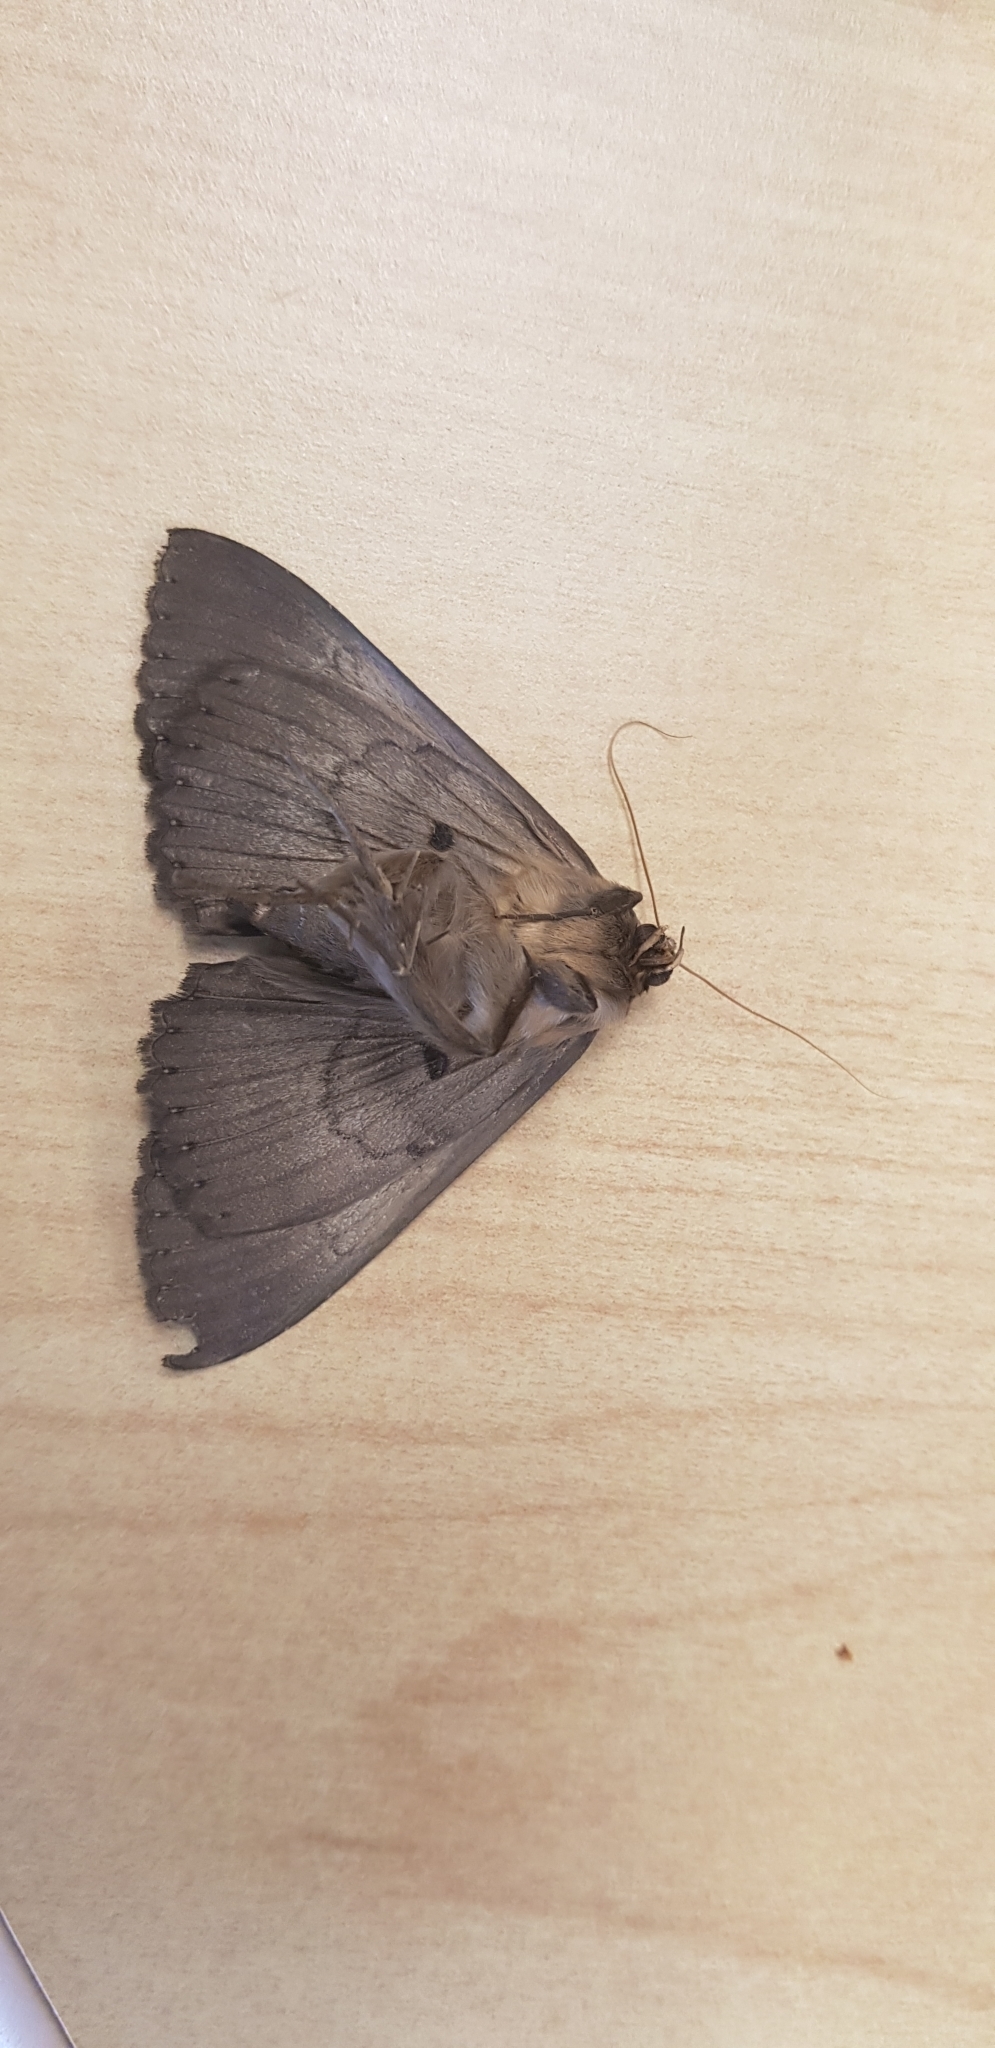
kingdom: Animalia
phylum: Arthropoda
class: Insecta
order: Lepidoptera
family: Erebidae
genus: Dasypodia
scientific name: Dasypodia cymatodes
